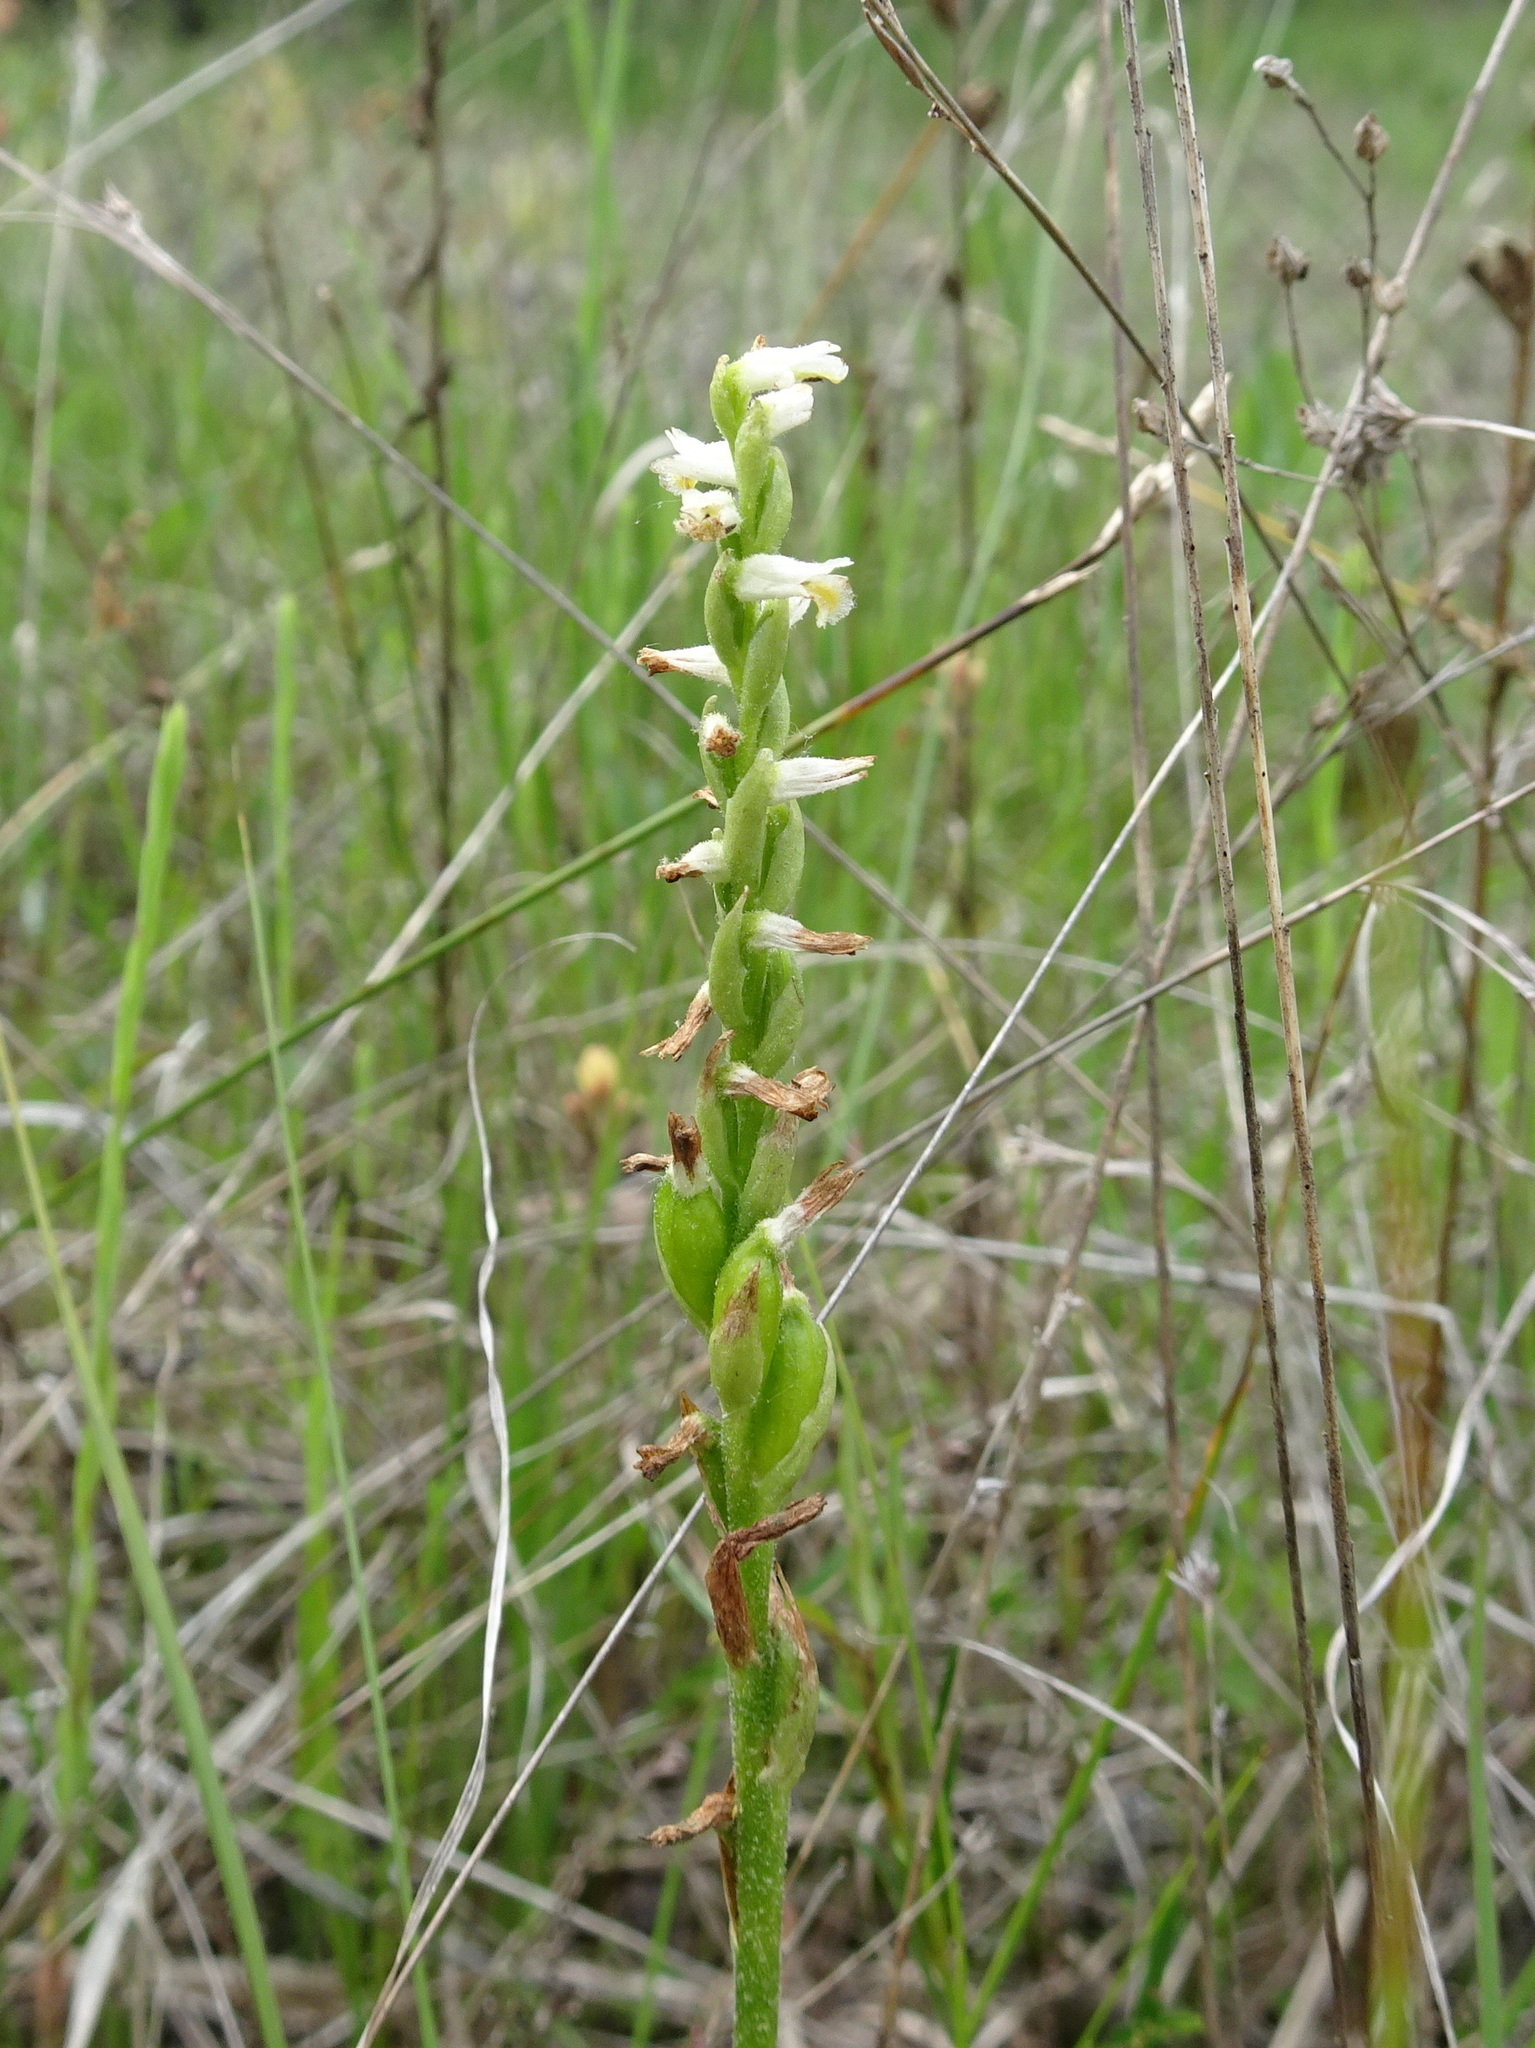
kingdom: Plantae
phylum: Tracheophyta
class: Liliopsida
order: Asparagales
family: Orchidaceae
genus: Spiranthes
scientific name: Spiranthes lucida
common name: Broad-leaved ladies'-tresses
